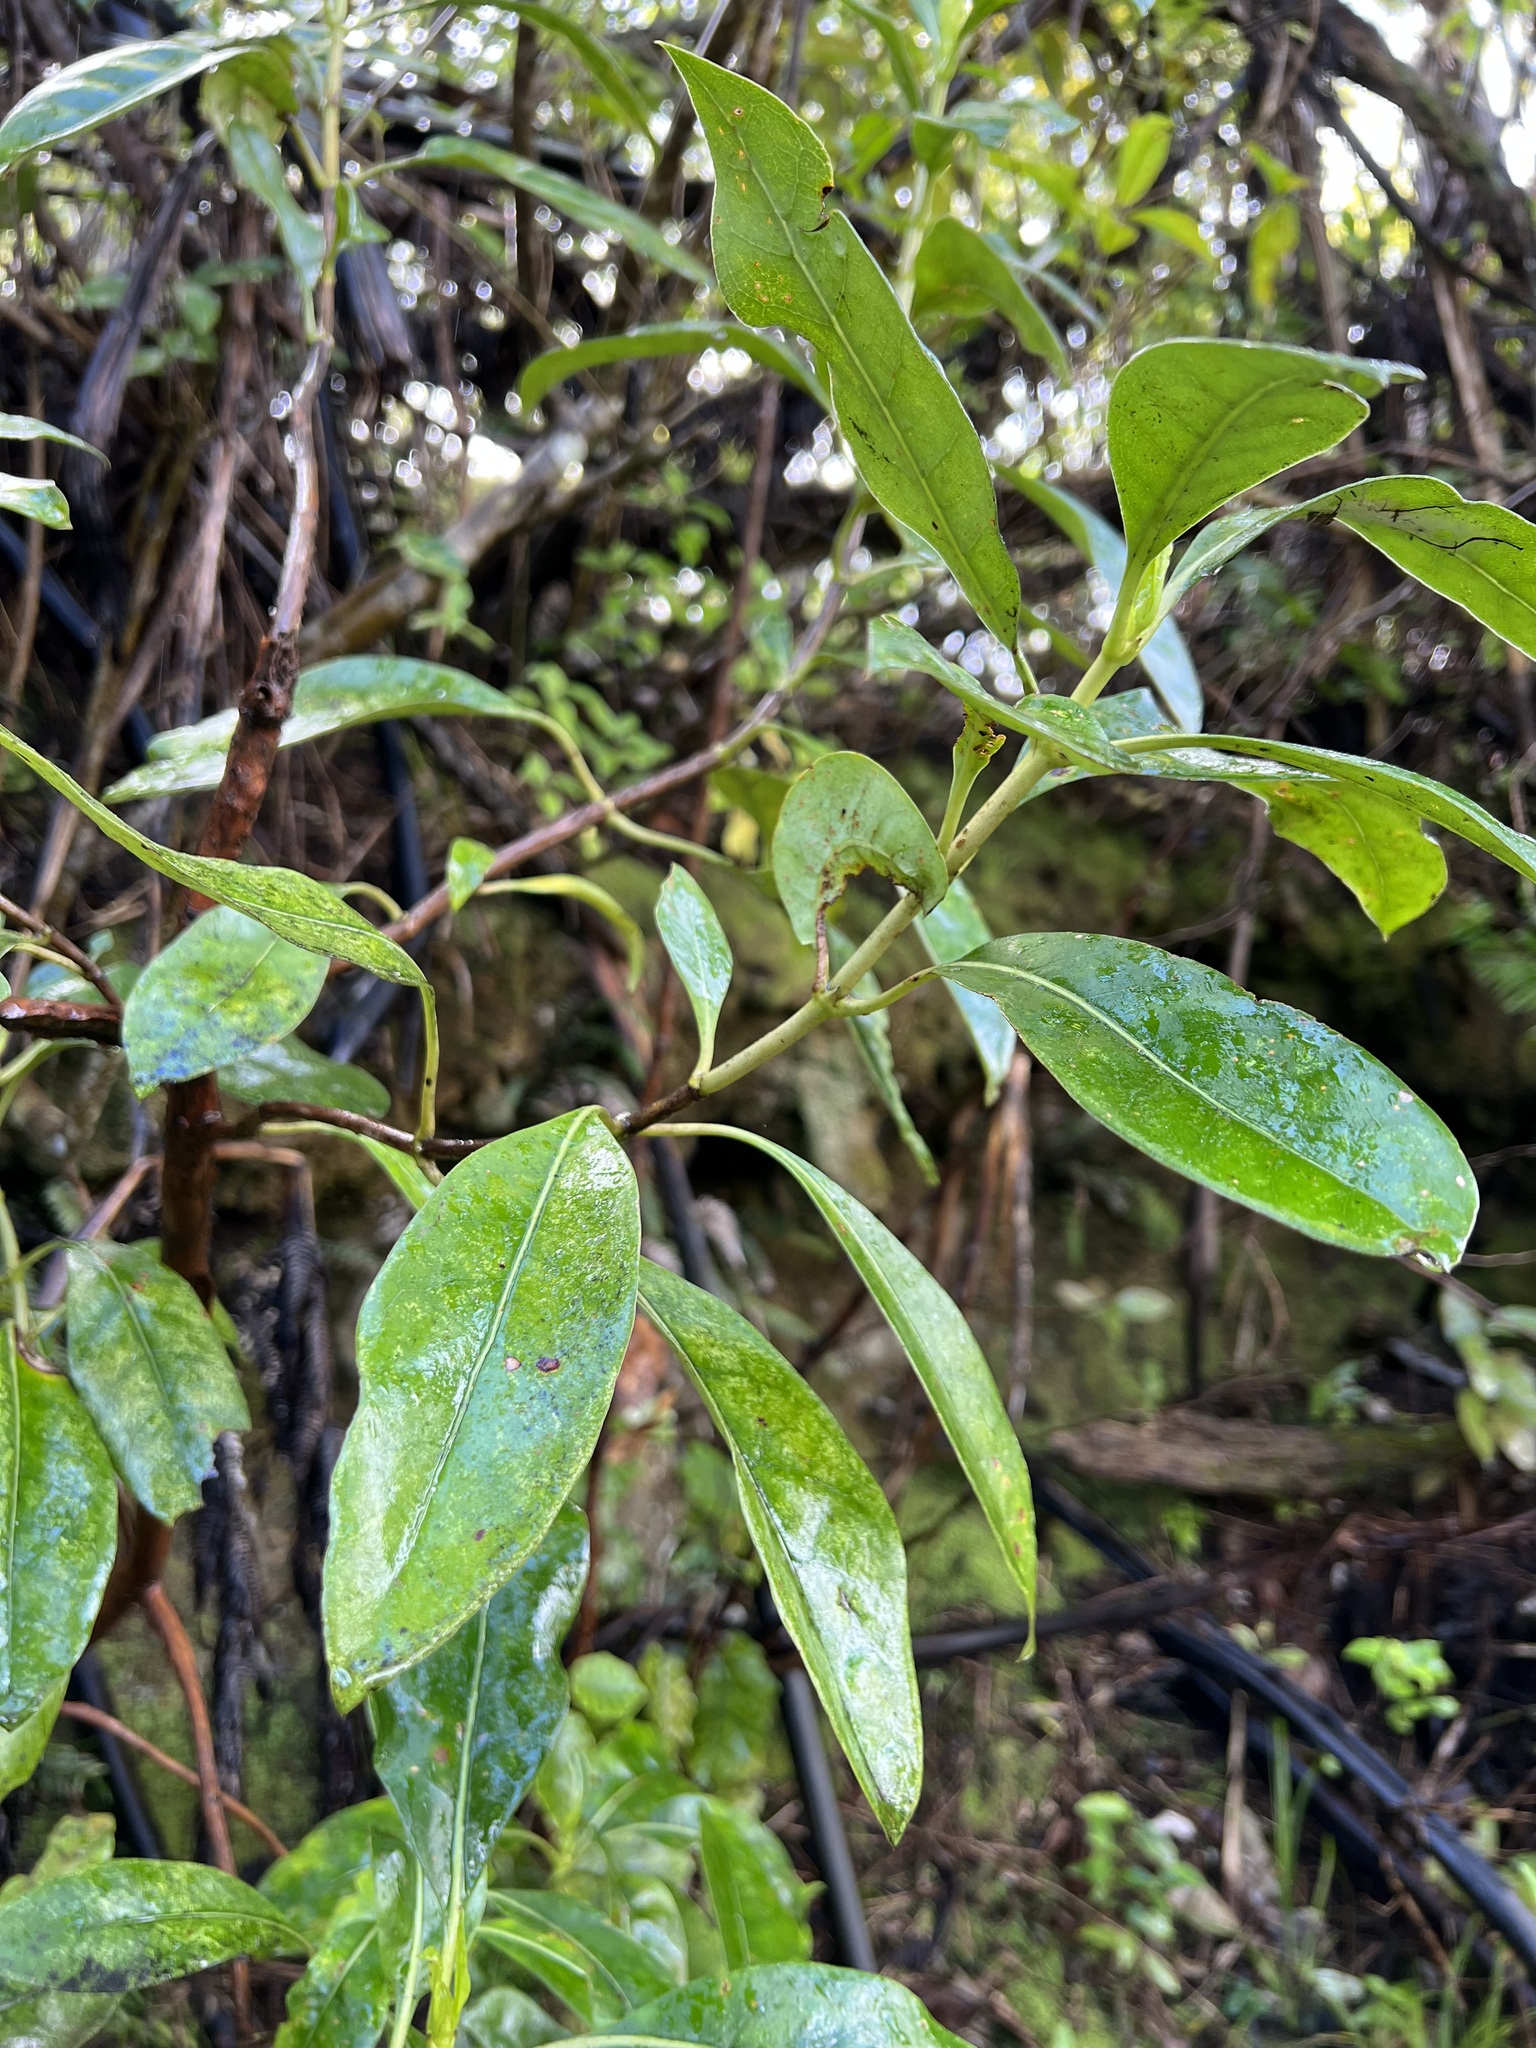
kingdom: Plantae
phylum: Tracheophyta
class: Magnoliopsida
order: Gentianales
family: Rubiaceae
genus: Coprosma
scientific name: Coprosma lucida
